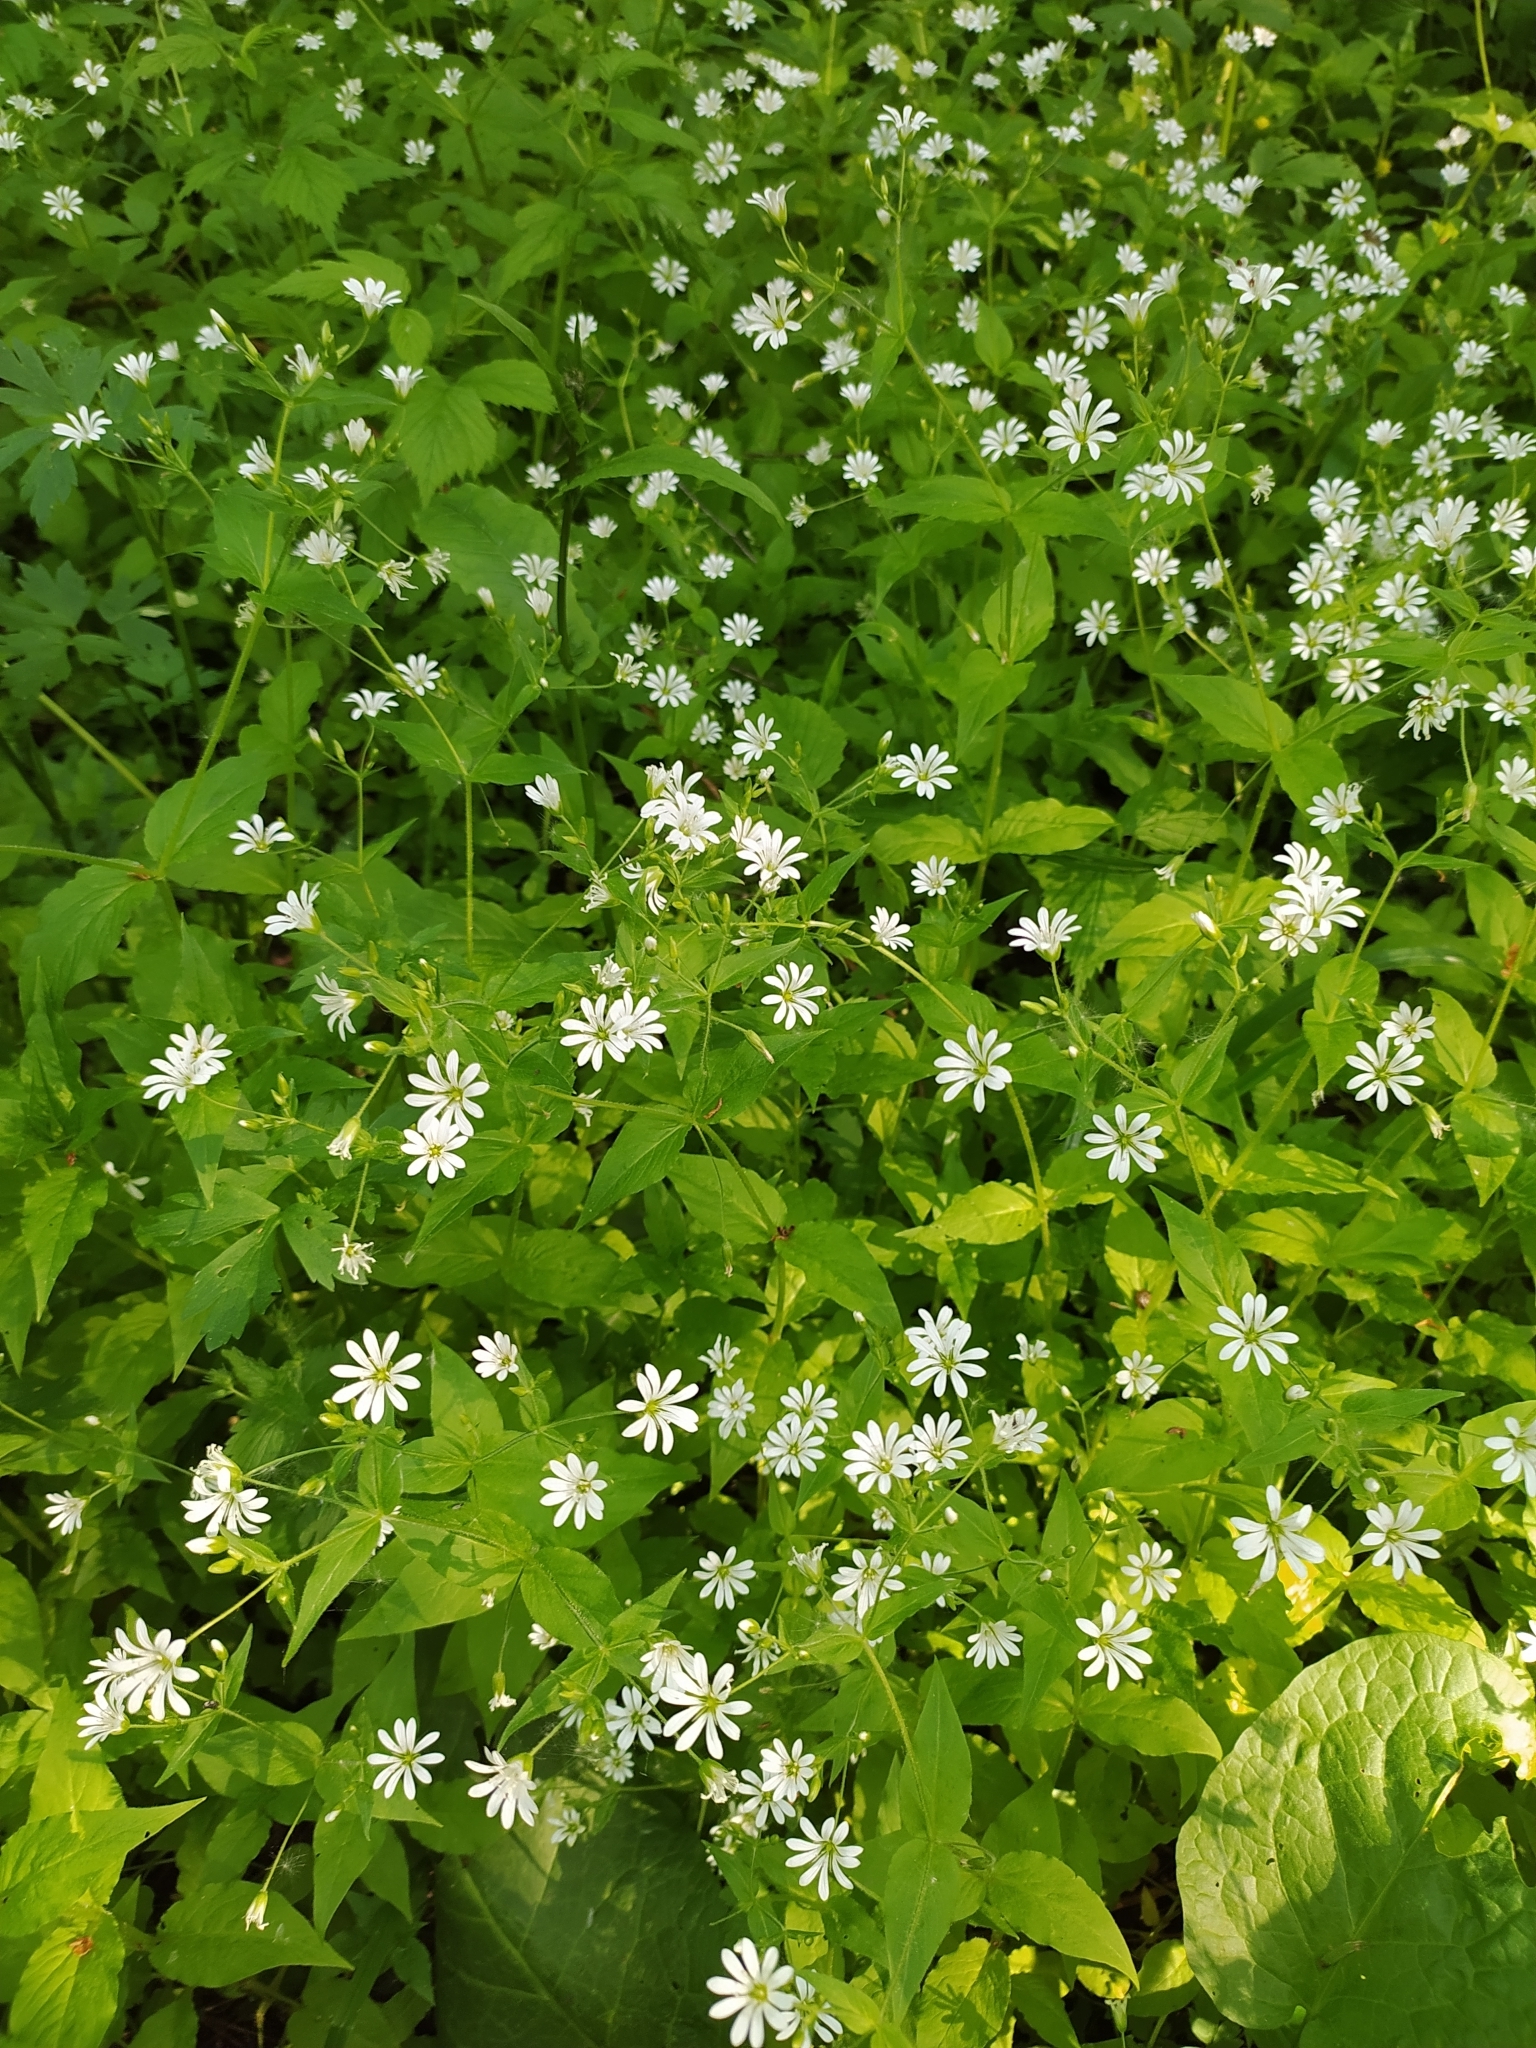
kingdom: Plantae
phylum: Tracheophyta
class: Magnoliopsida
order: Caryophyllales
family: Caryophyllaceae
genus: Stellaria
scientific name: Stellaria nemorum
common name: Wood stitchwort
